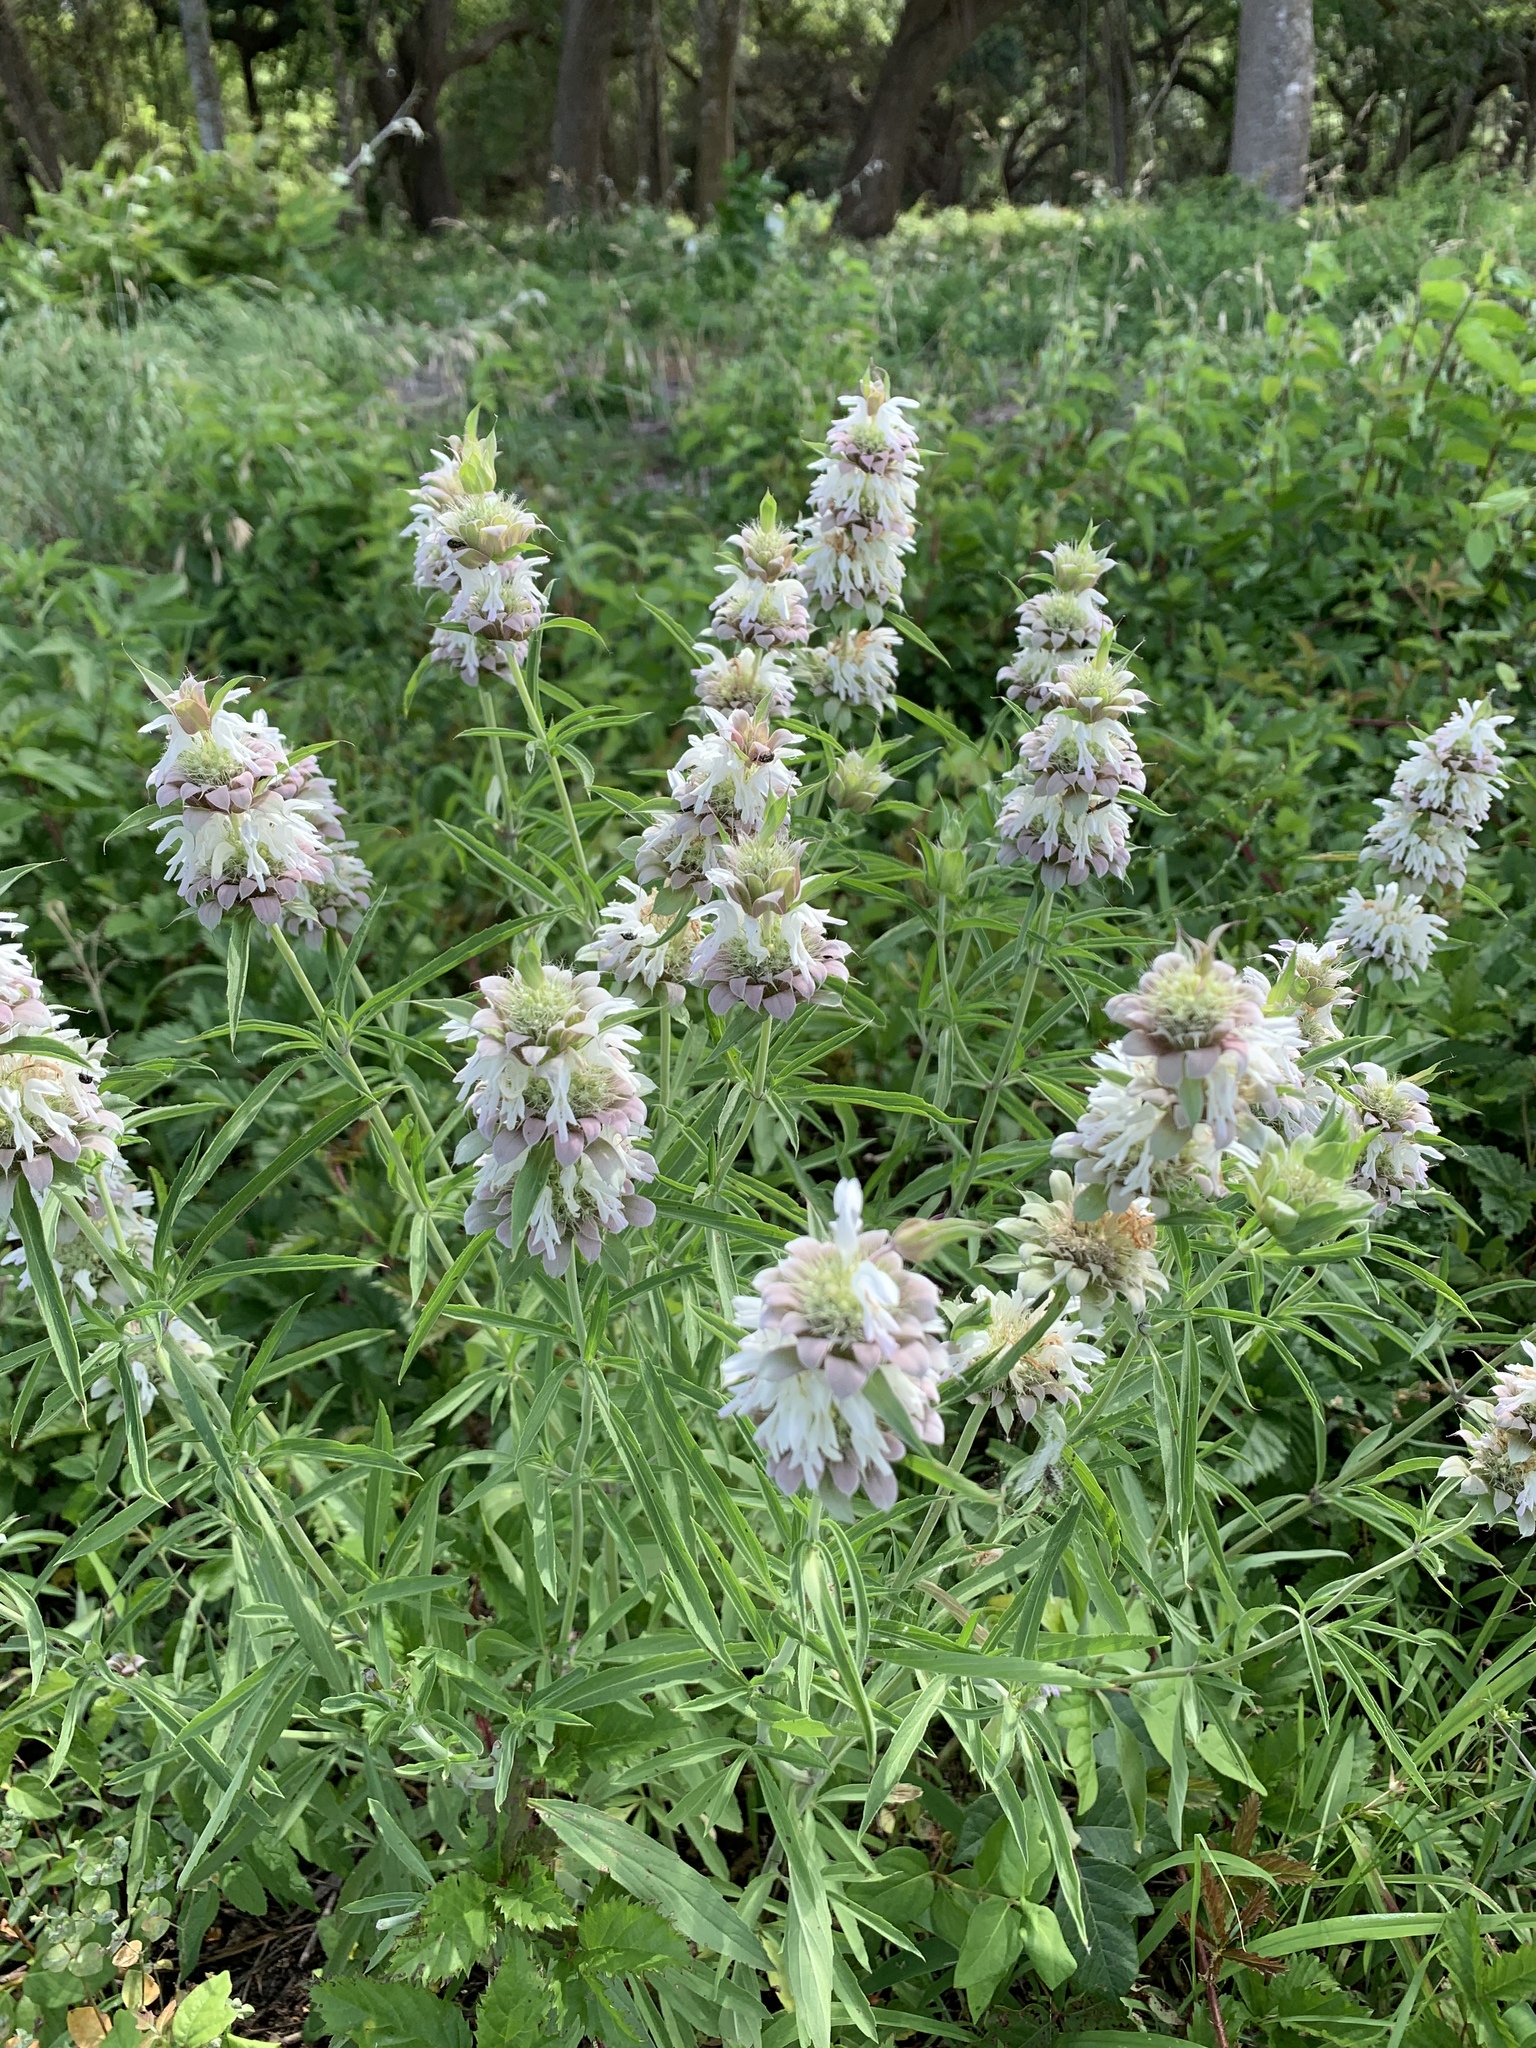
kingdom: Plantae
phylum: Tracheophyta
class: Magnoliopsida
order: Lamiales
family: Lamiaceae
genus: Monarda
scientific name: Monarda citriodora
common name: Lemon beebalm
